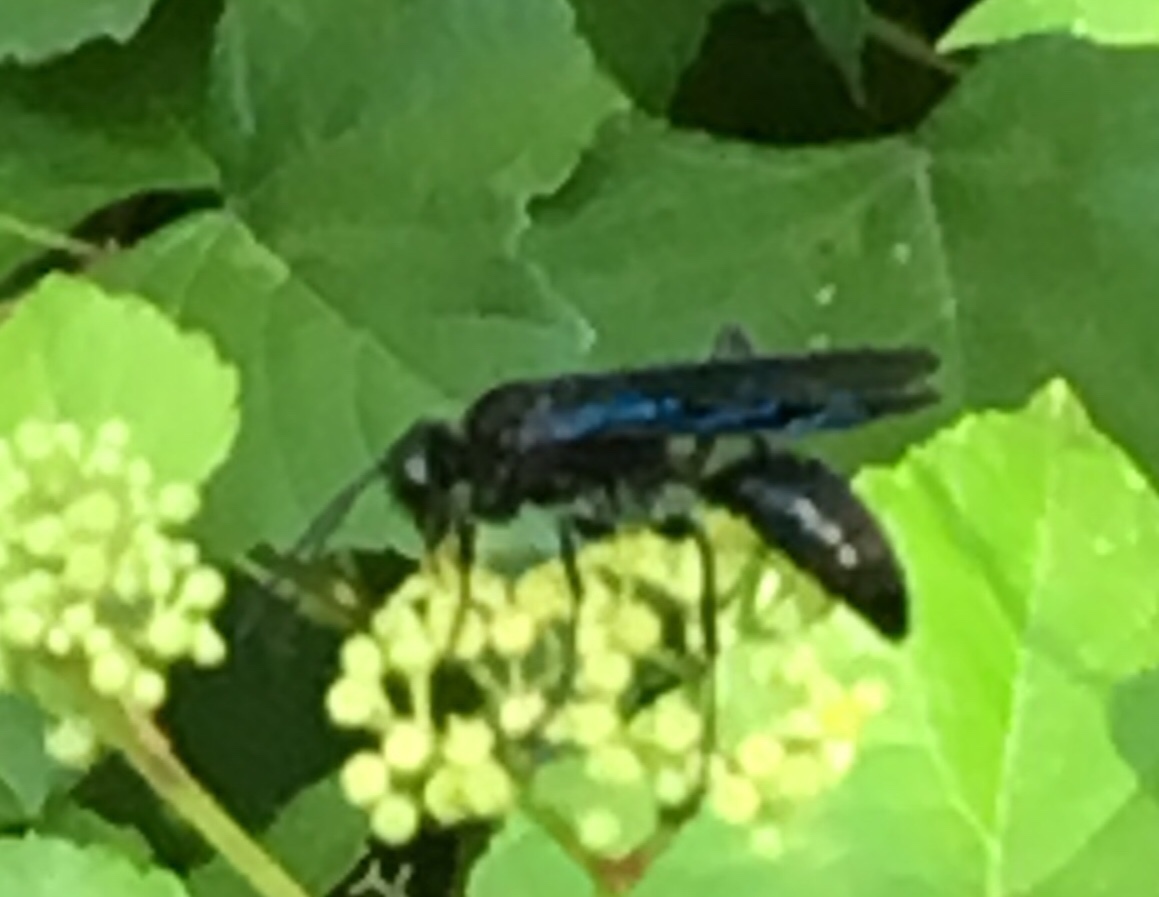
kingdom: Animalia
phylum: Arthropoda
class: Insecta
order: Hymenoptera
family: Sphecidae
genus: Sphex
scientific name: Sphex pensylvanicus
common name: Great black digger wasp
